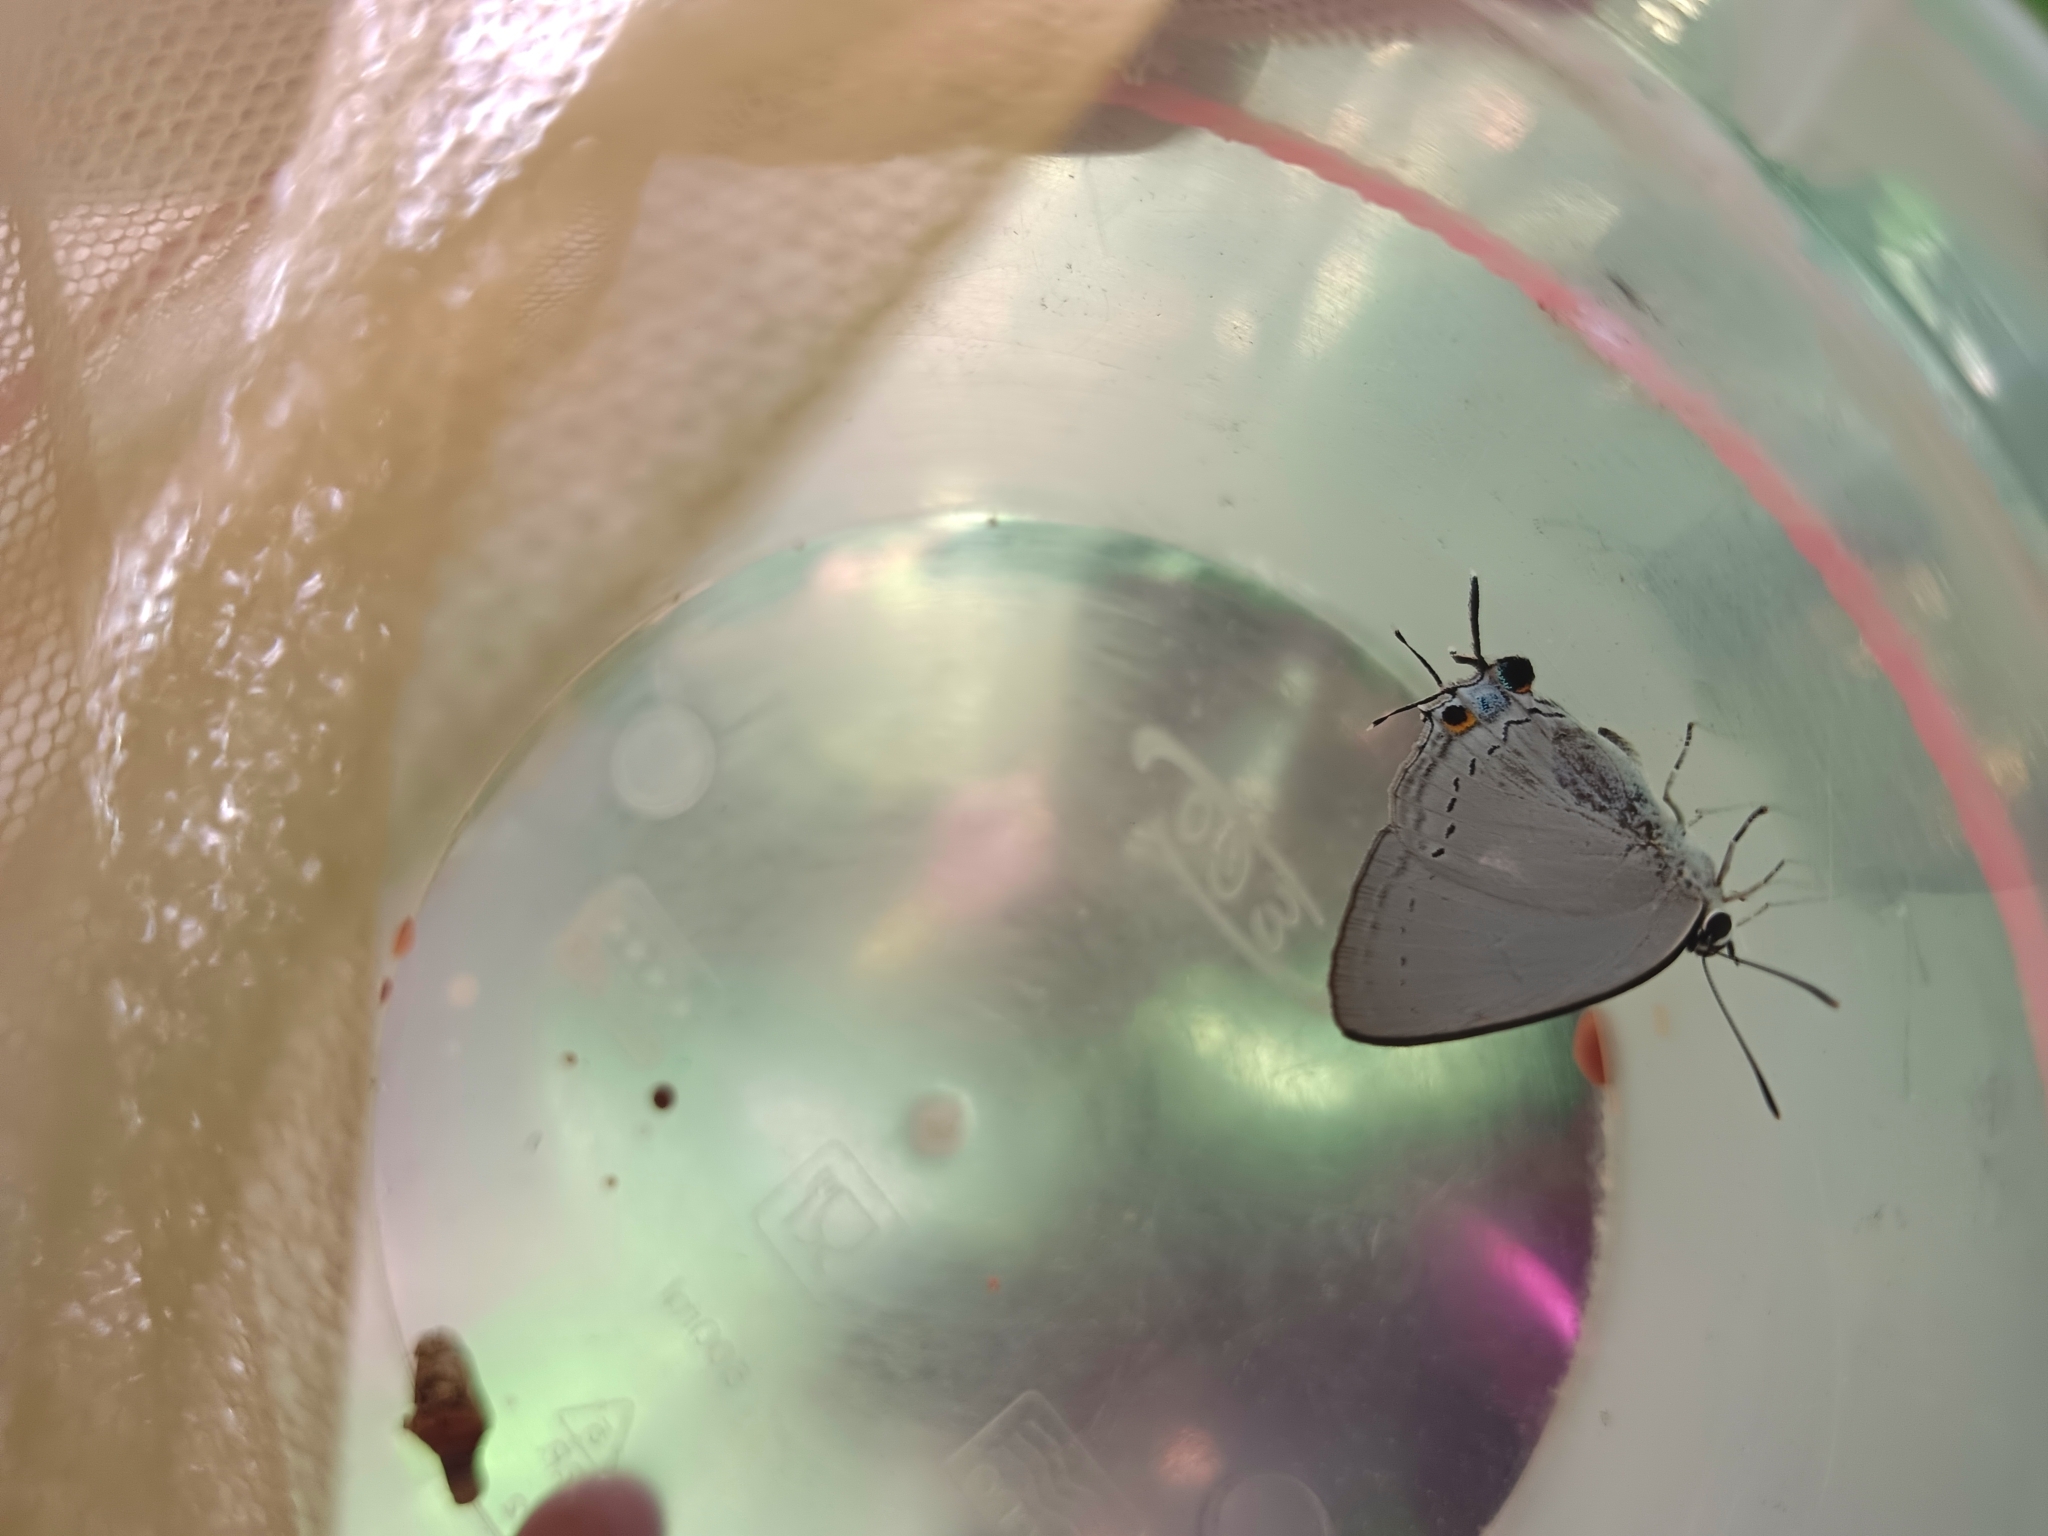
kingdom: Animalia
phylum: Arthropoda
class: Insecta
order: Lepidoptera
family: Lycaenidae
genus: Tajuria
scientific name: Tajuria cippus
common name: Peacock royal
